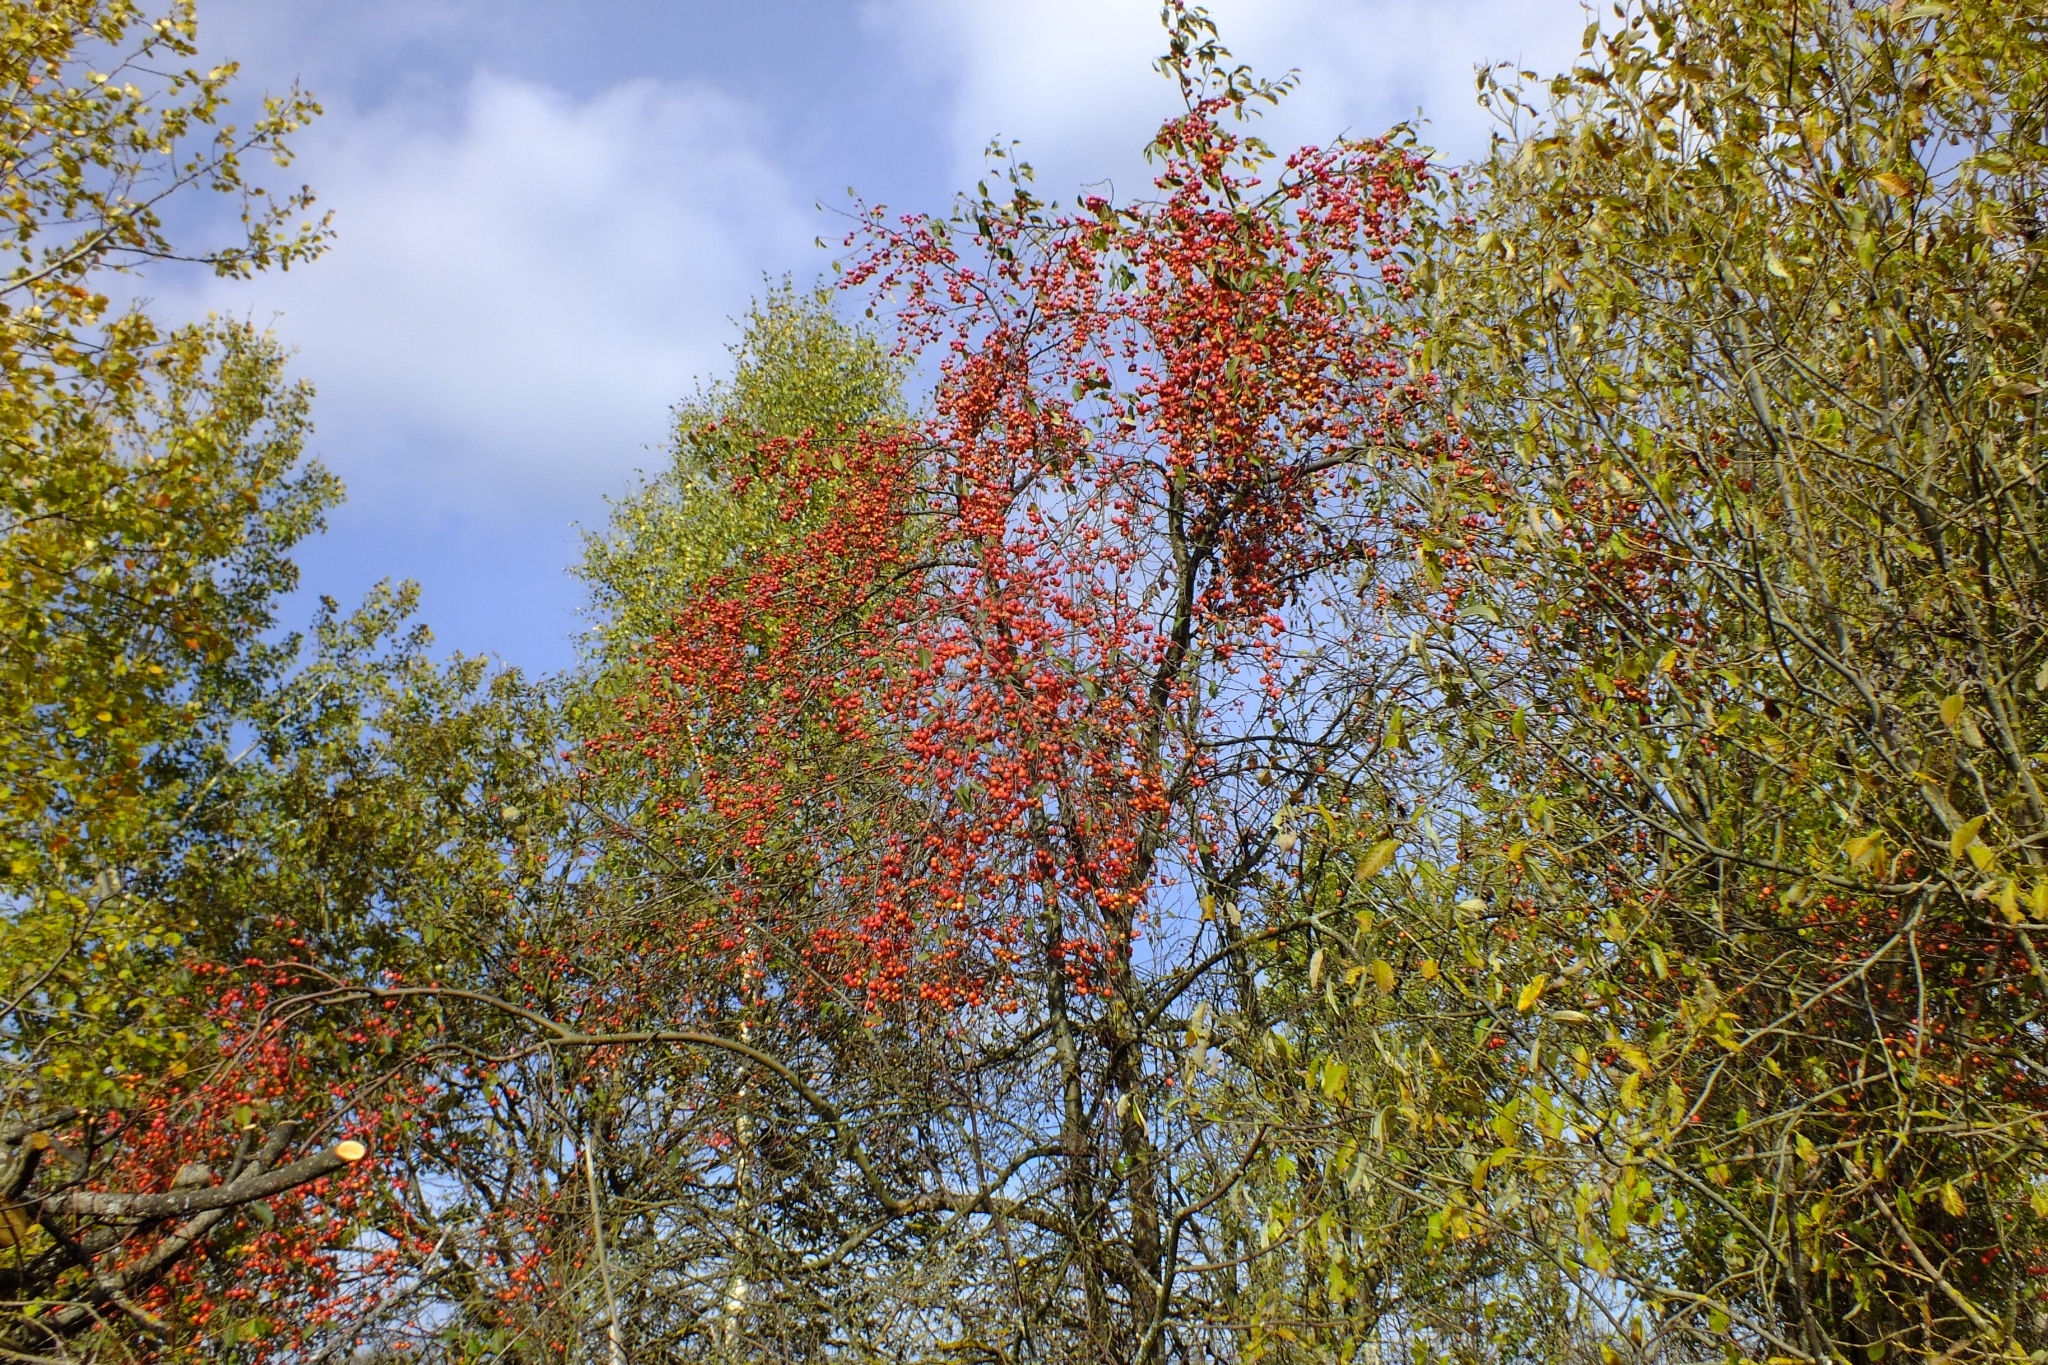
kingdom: Plantae
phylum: Tracheophyta
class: Magnoliopsida
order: Rosales
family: Rosaceae
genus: Malus
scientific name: Malus baccata
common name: Siberian crab
